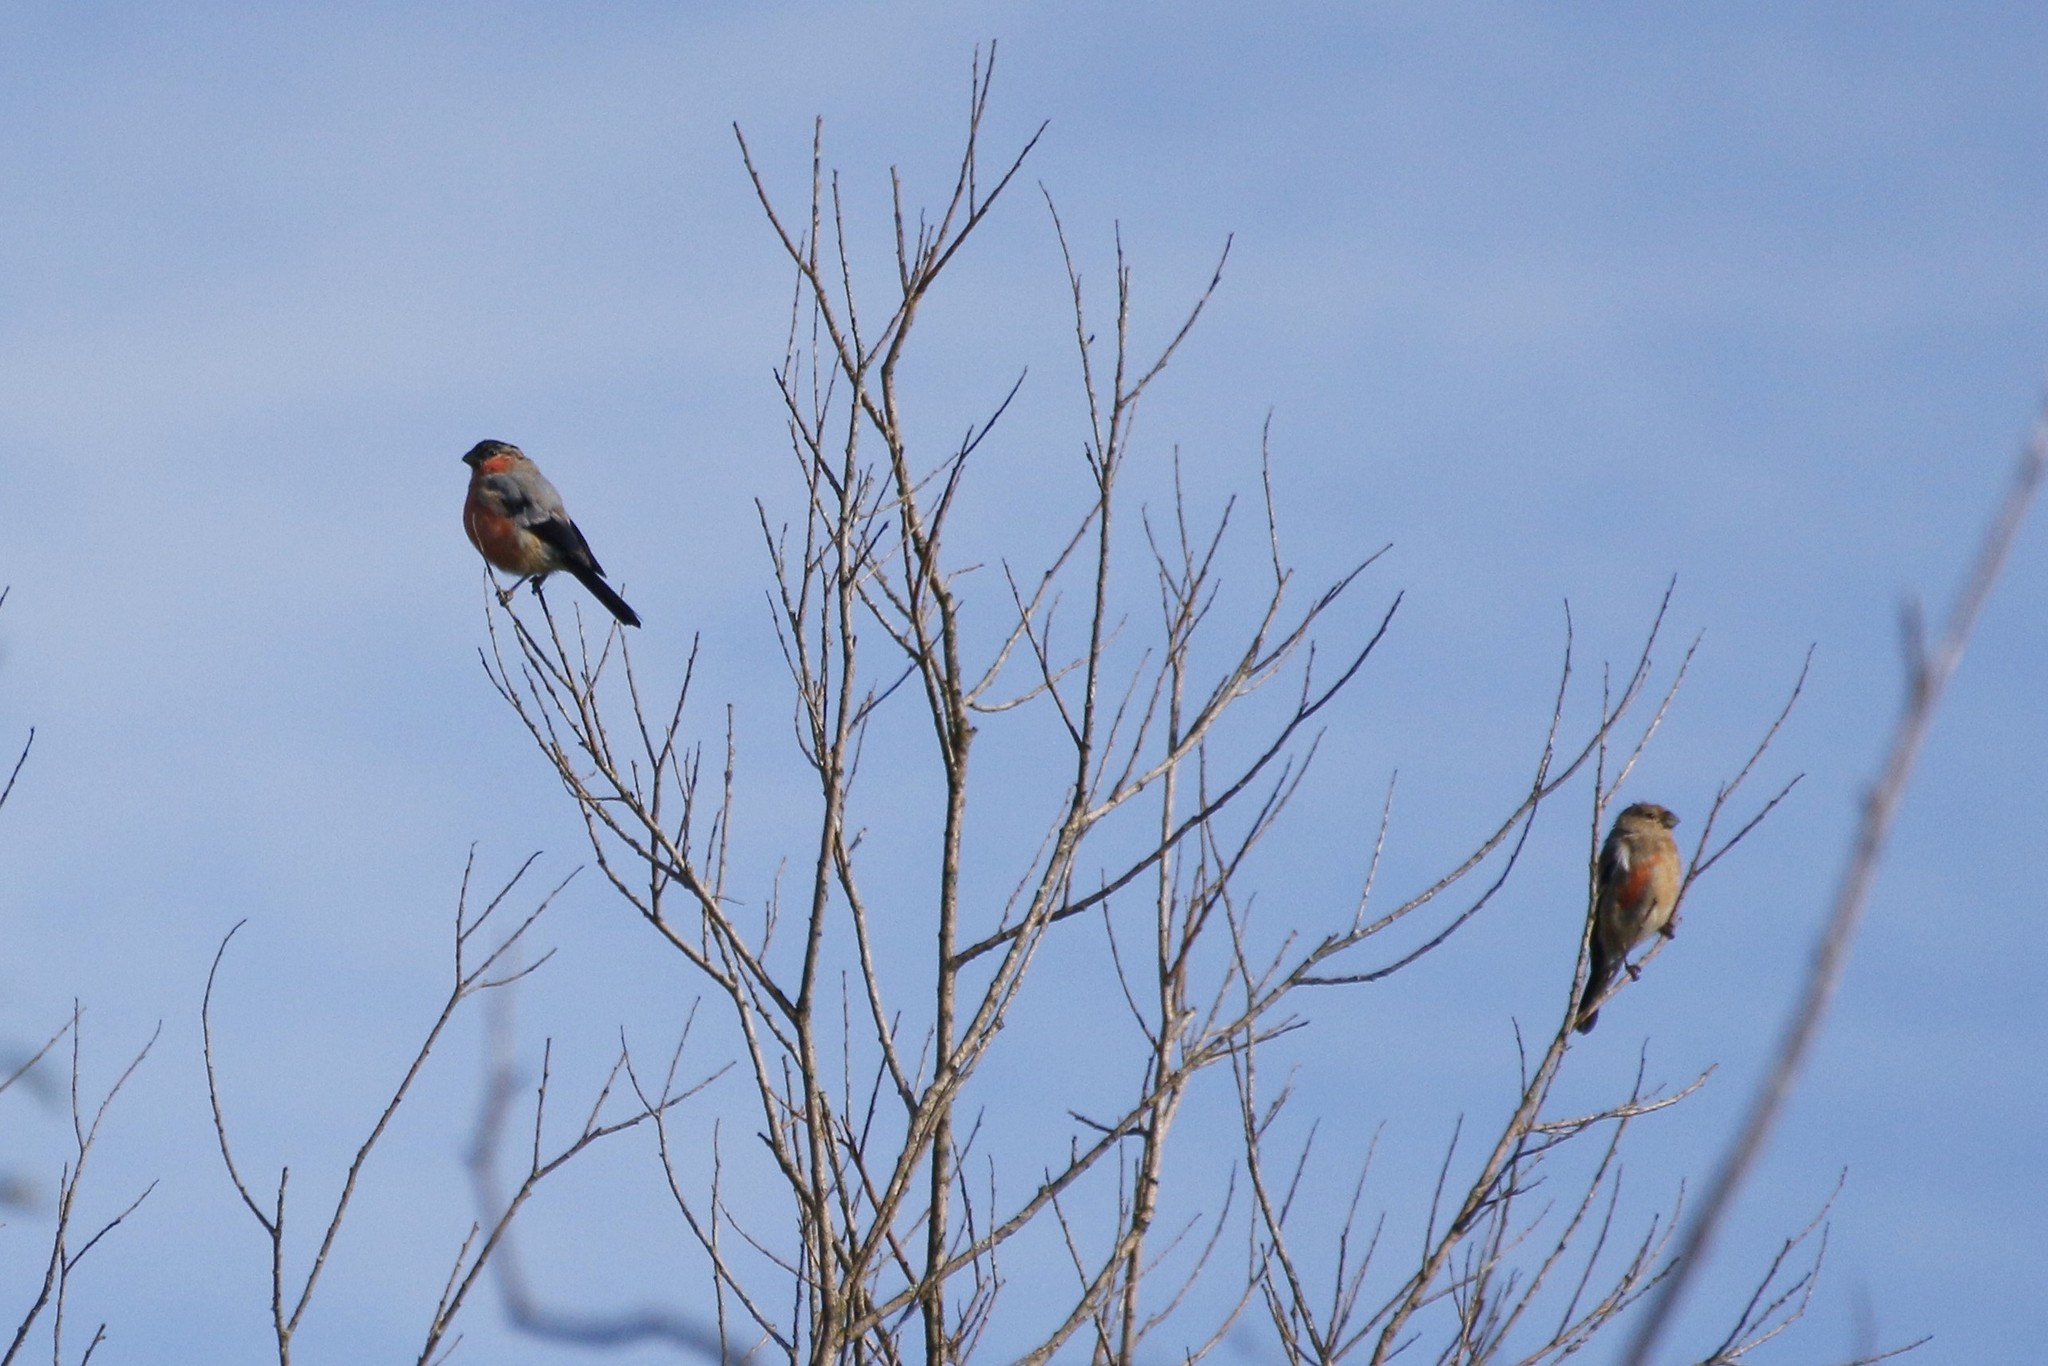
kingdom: Animalia
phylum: Chordata
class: Aves
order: Passeriformes
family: Fringillidae
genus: Pyrrhula
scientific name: Pyrrhula pyrrhula
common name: Eurasian bullfinch
